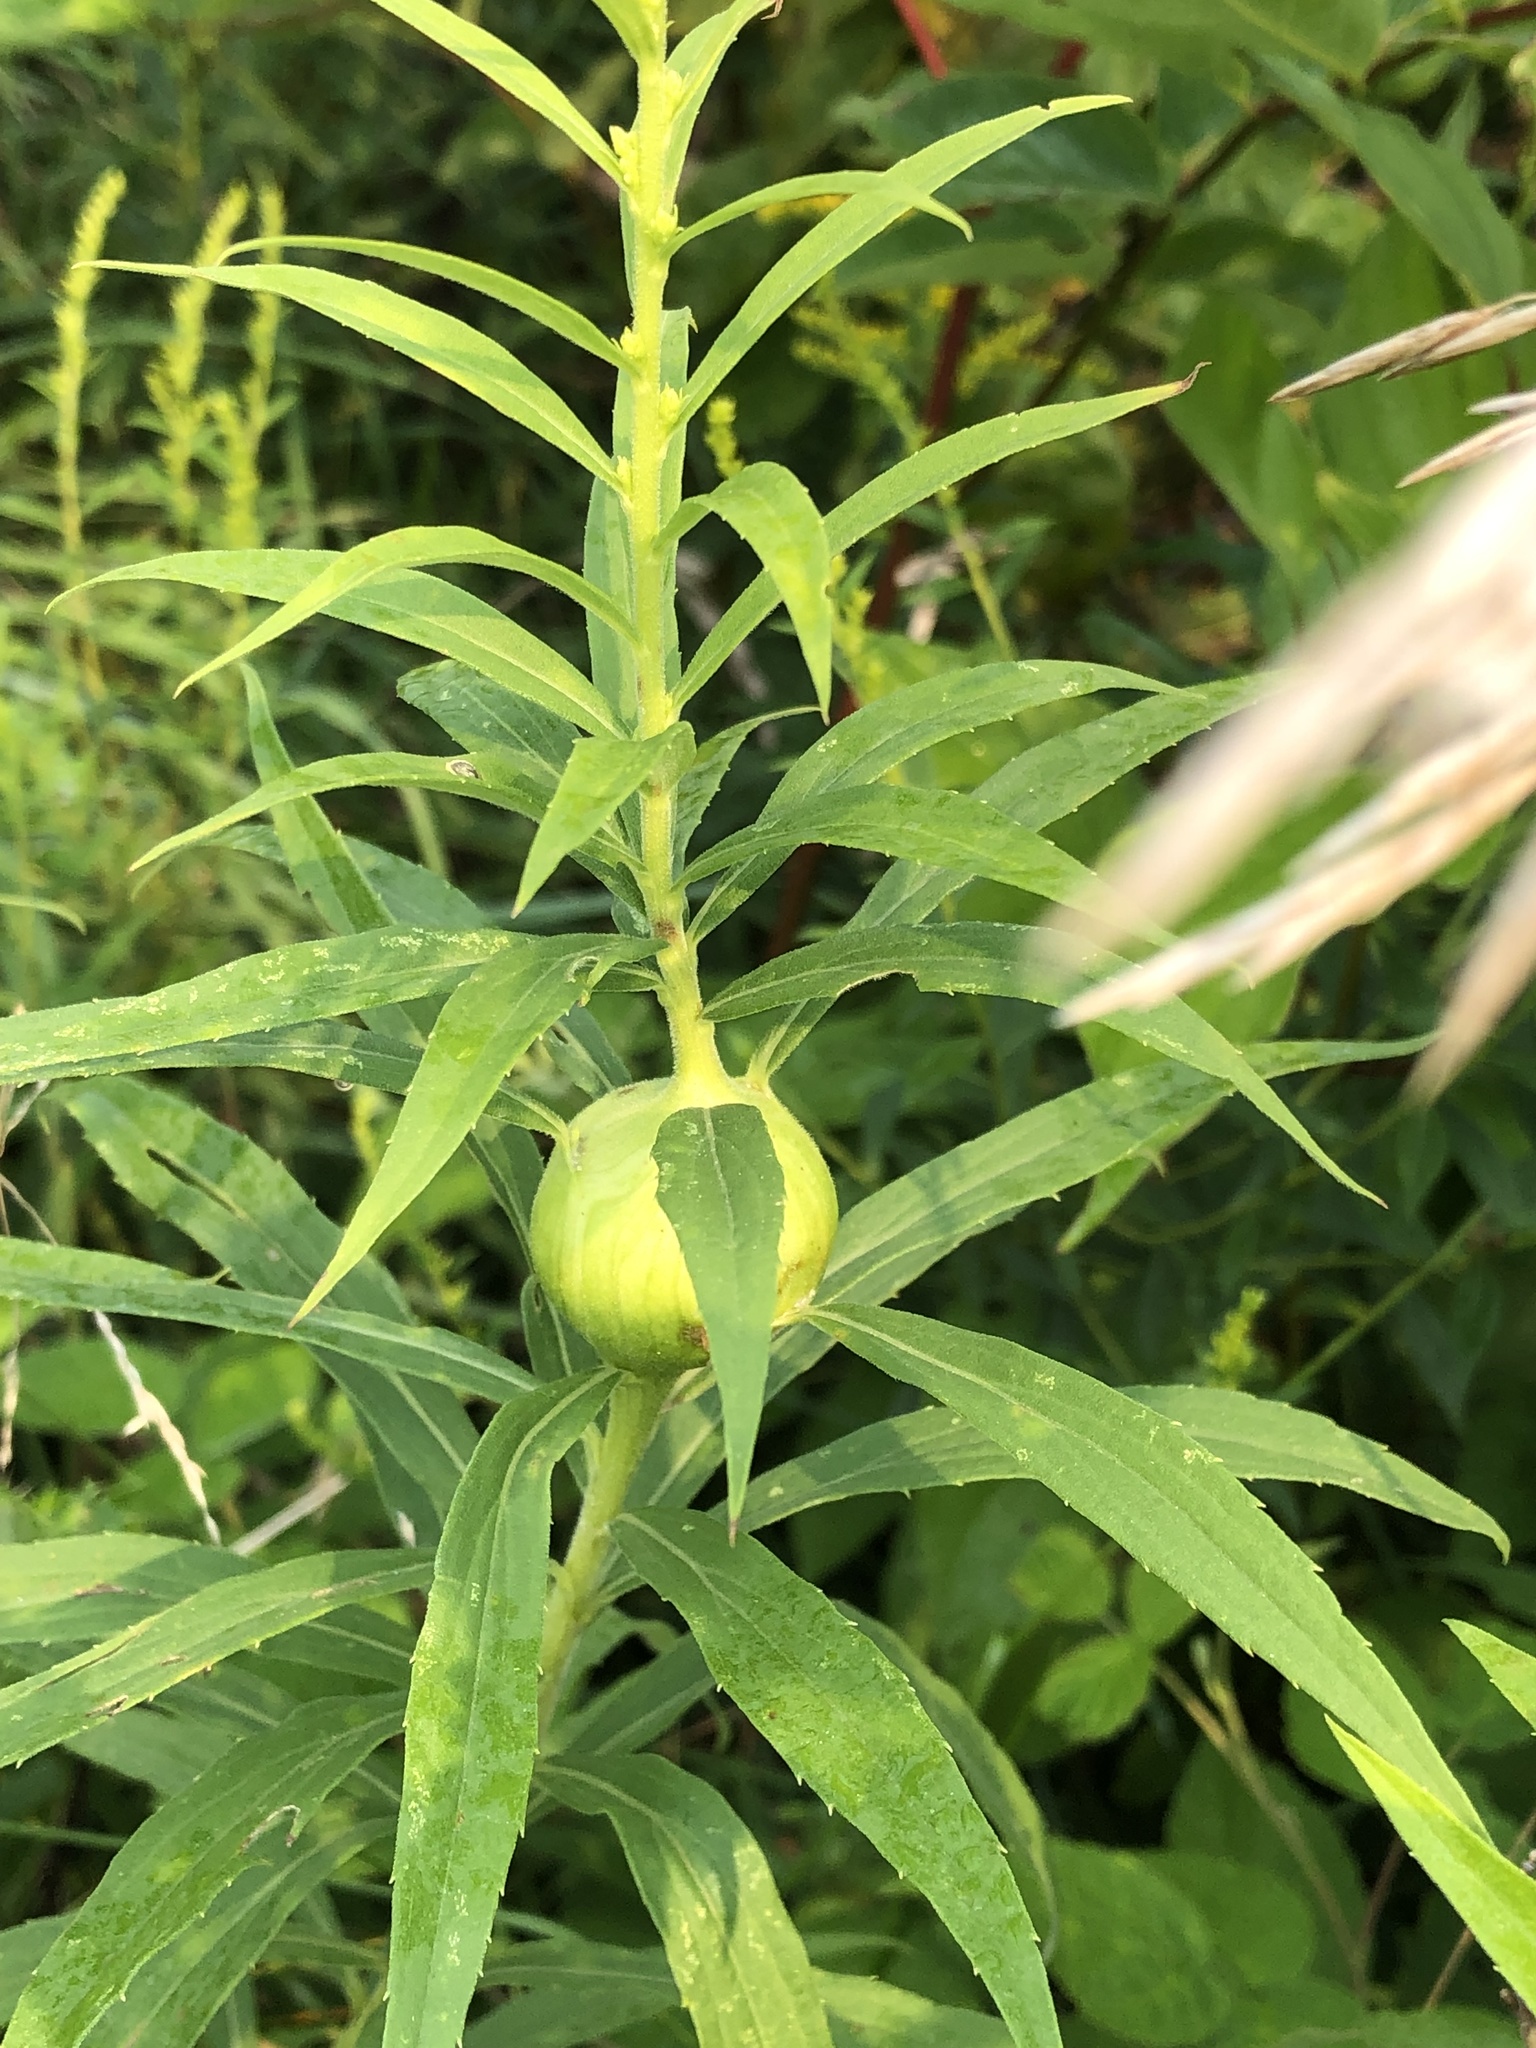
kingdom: Animalia
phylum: Arthropoda
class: Insecta
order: Diptera
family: Tephritidae
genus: Eurosta
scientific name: Eurosta solidaginis
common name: Goldenrod gall fly
